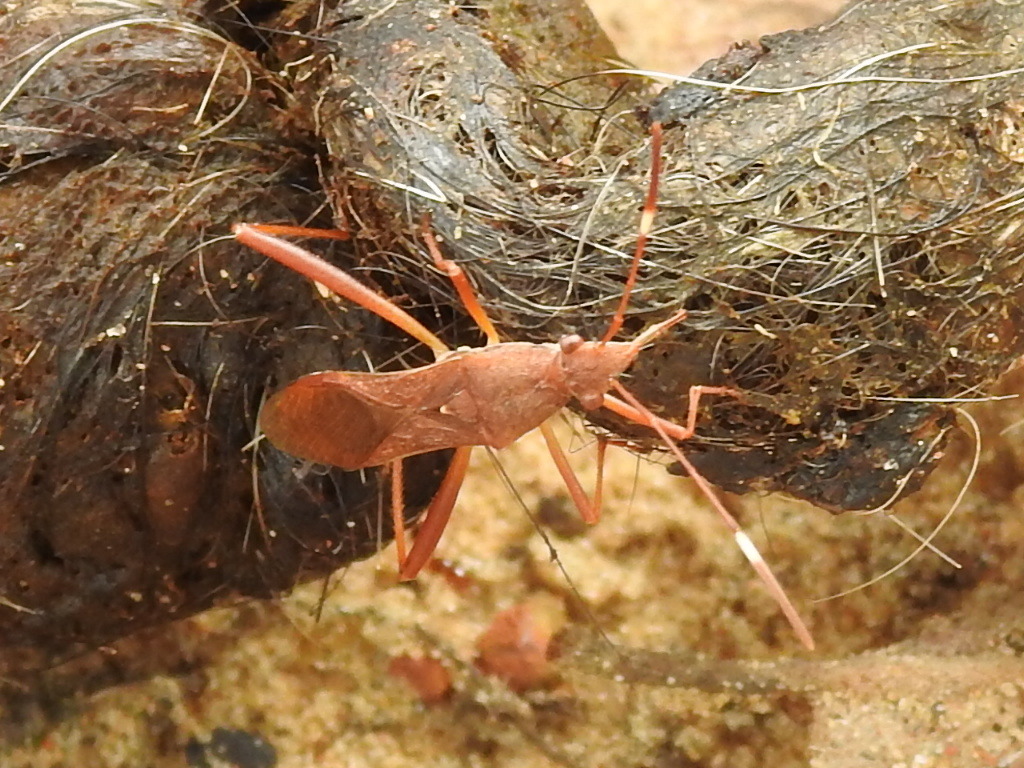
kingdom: Animalia
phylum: Arthropoda
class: Insecta
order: Hemiptera
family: Alydidae
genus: Megalotomus
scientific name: Megalotomus quinquespinosus
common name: Lupine bug
